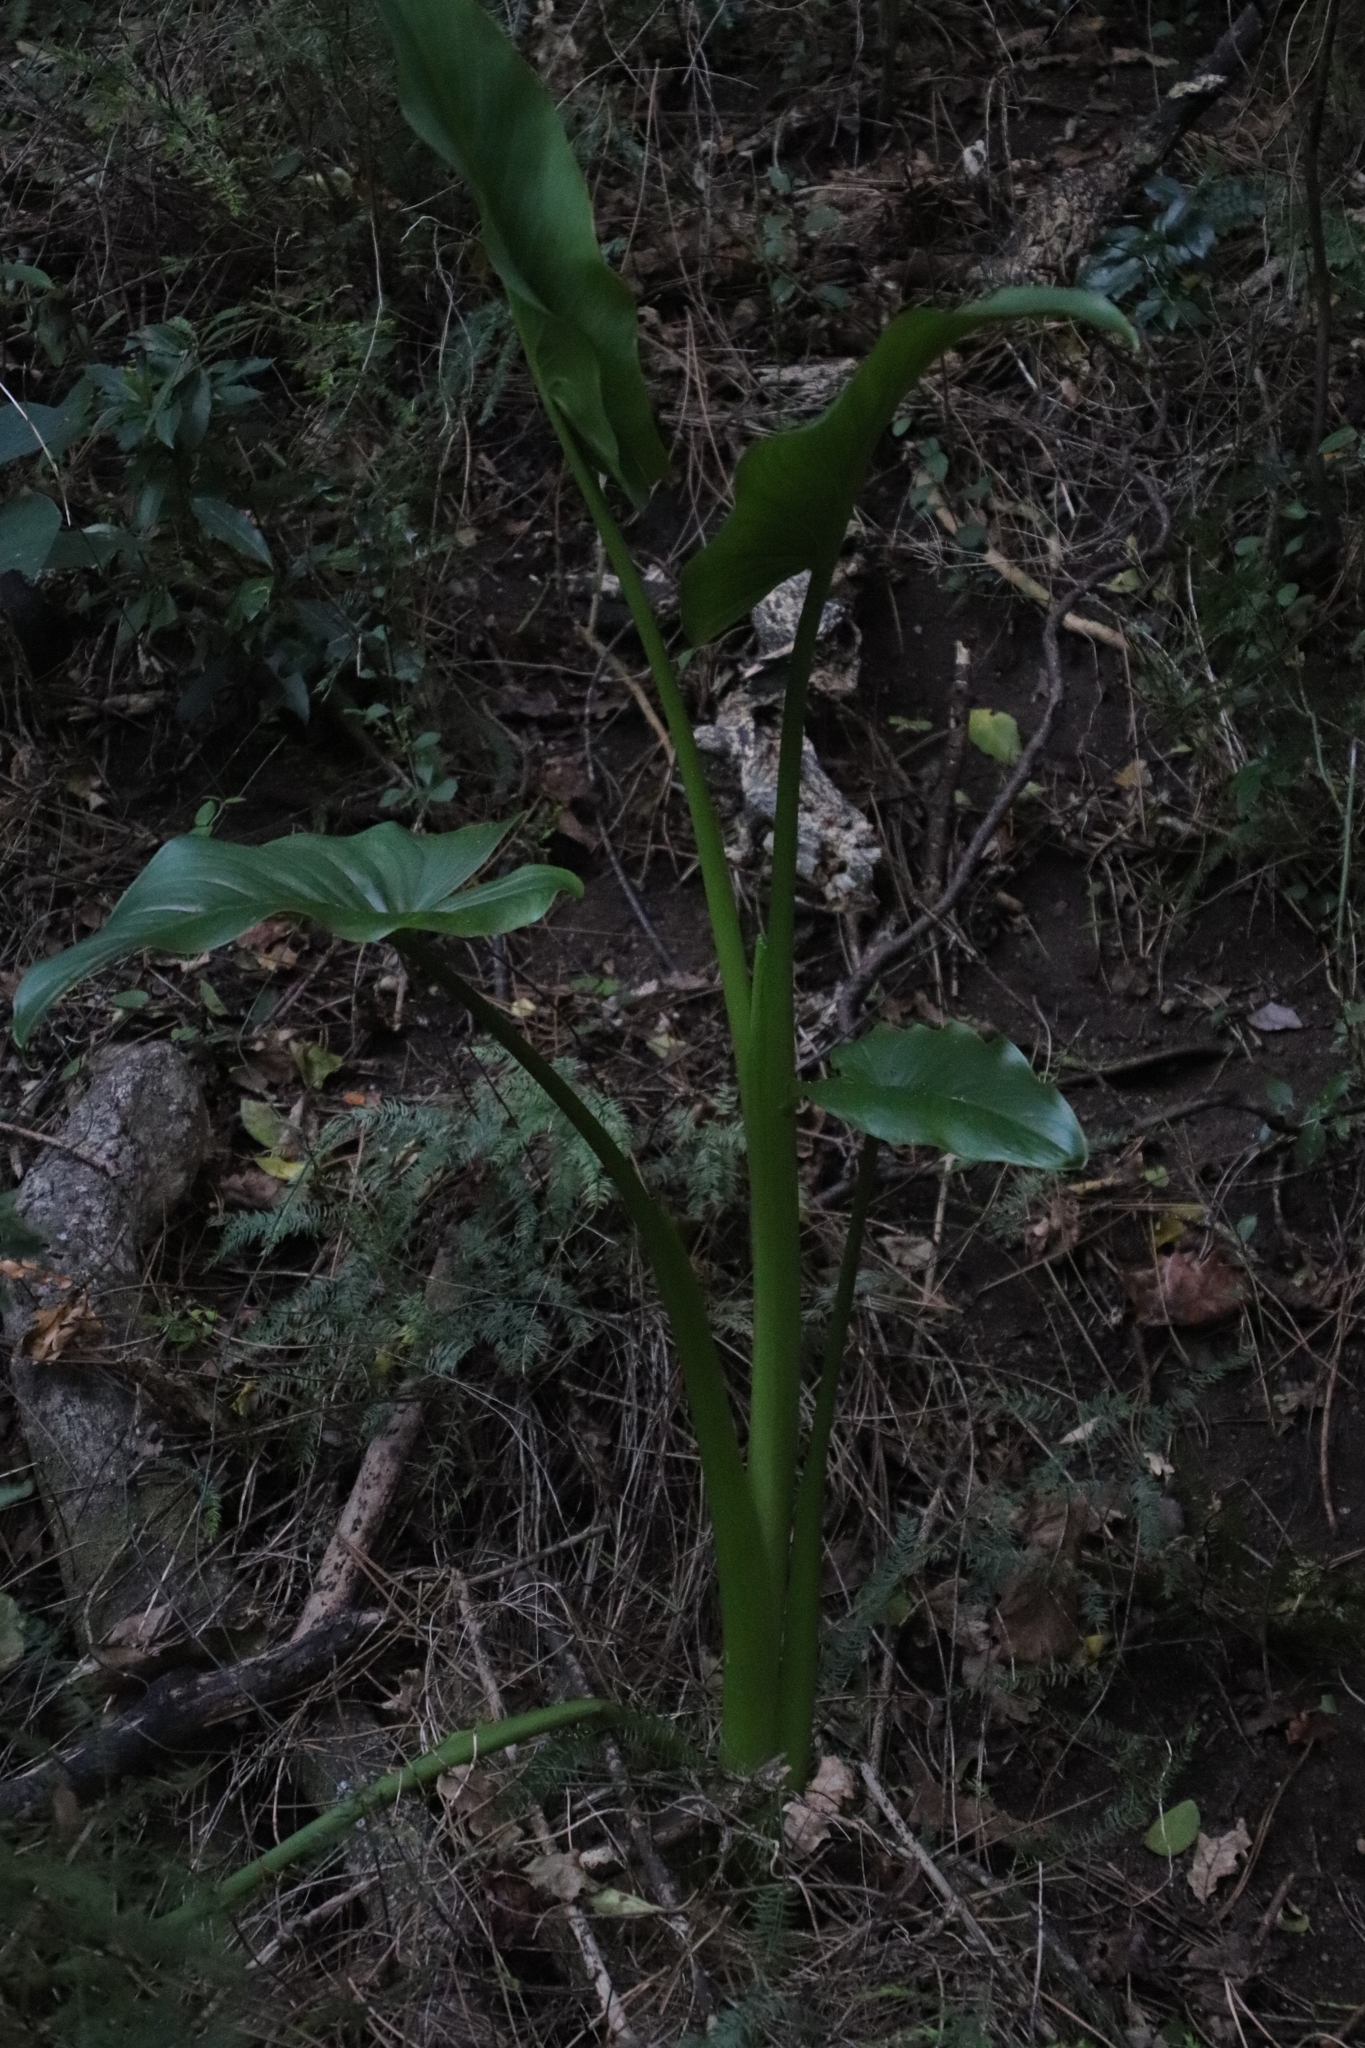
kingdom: Plantae
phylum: Tracheophyta
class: Liliopsida
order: Alismatales
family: Araceae
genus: Zantedeschia
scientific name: Zantedeschia aethiopica
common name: Altar-lily
